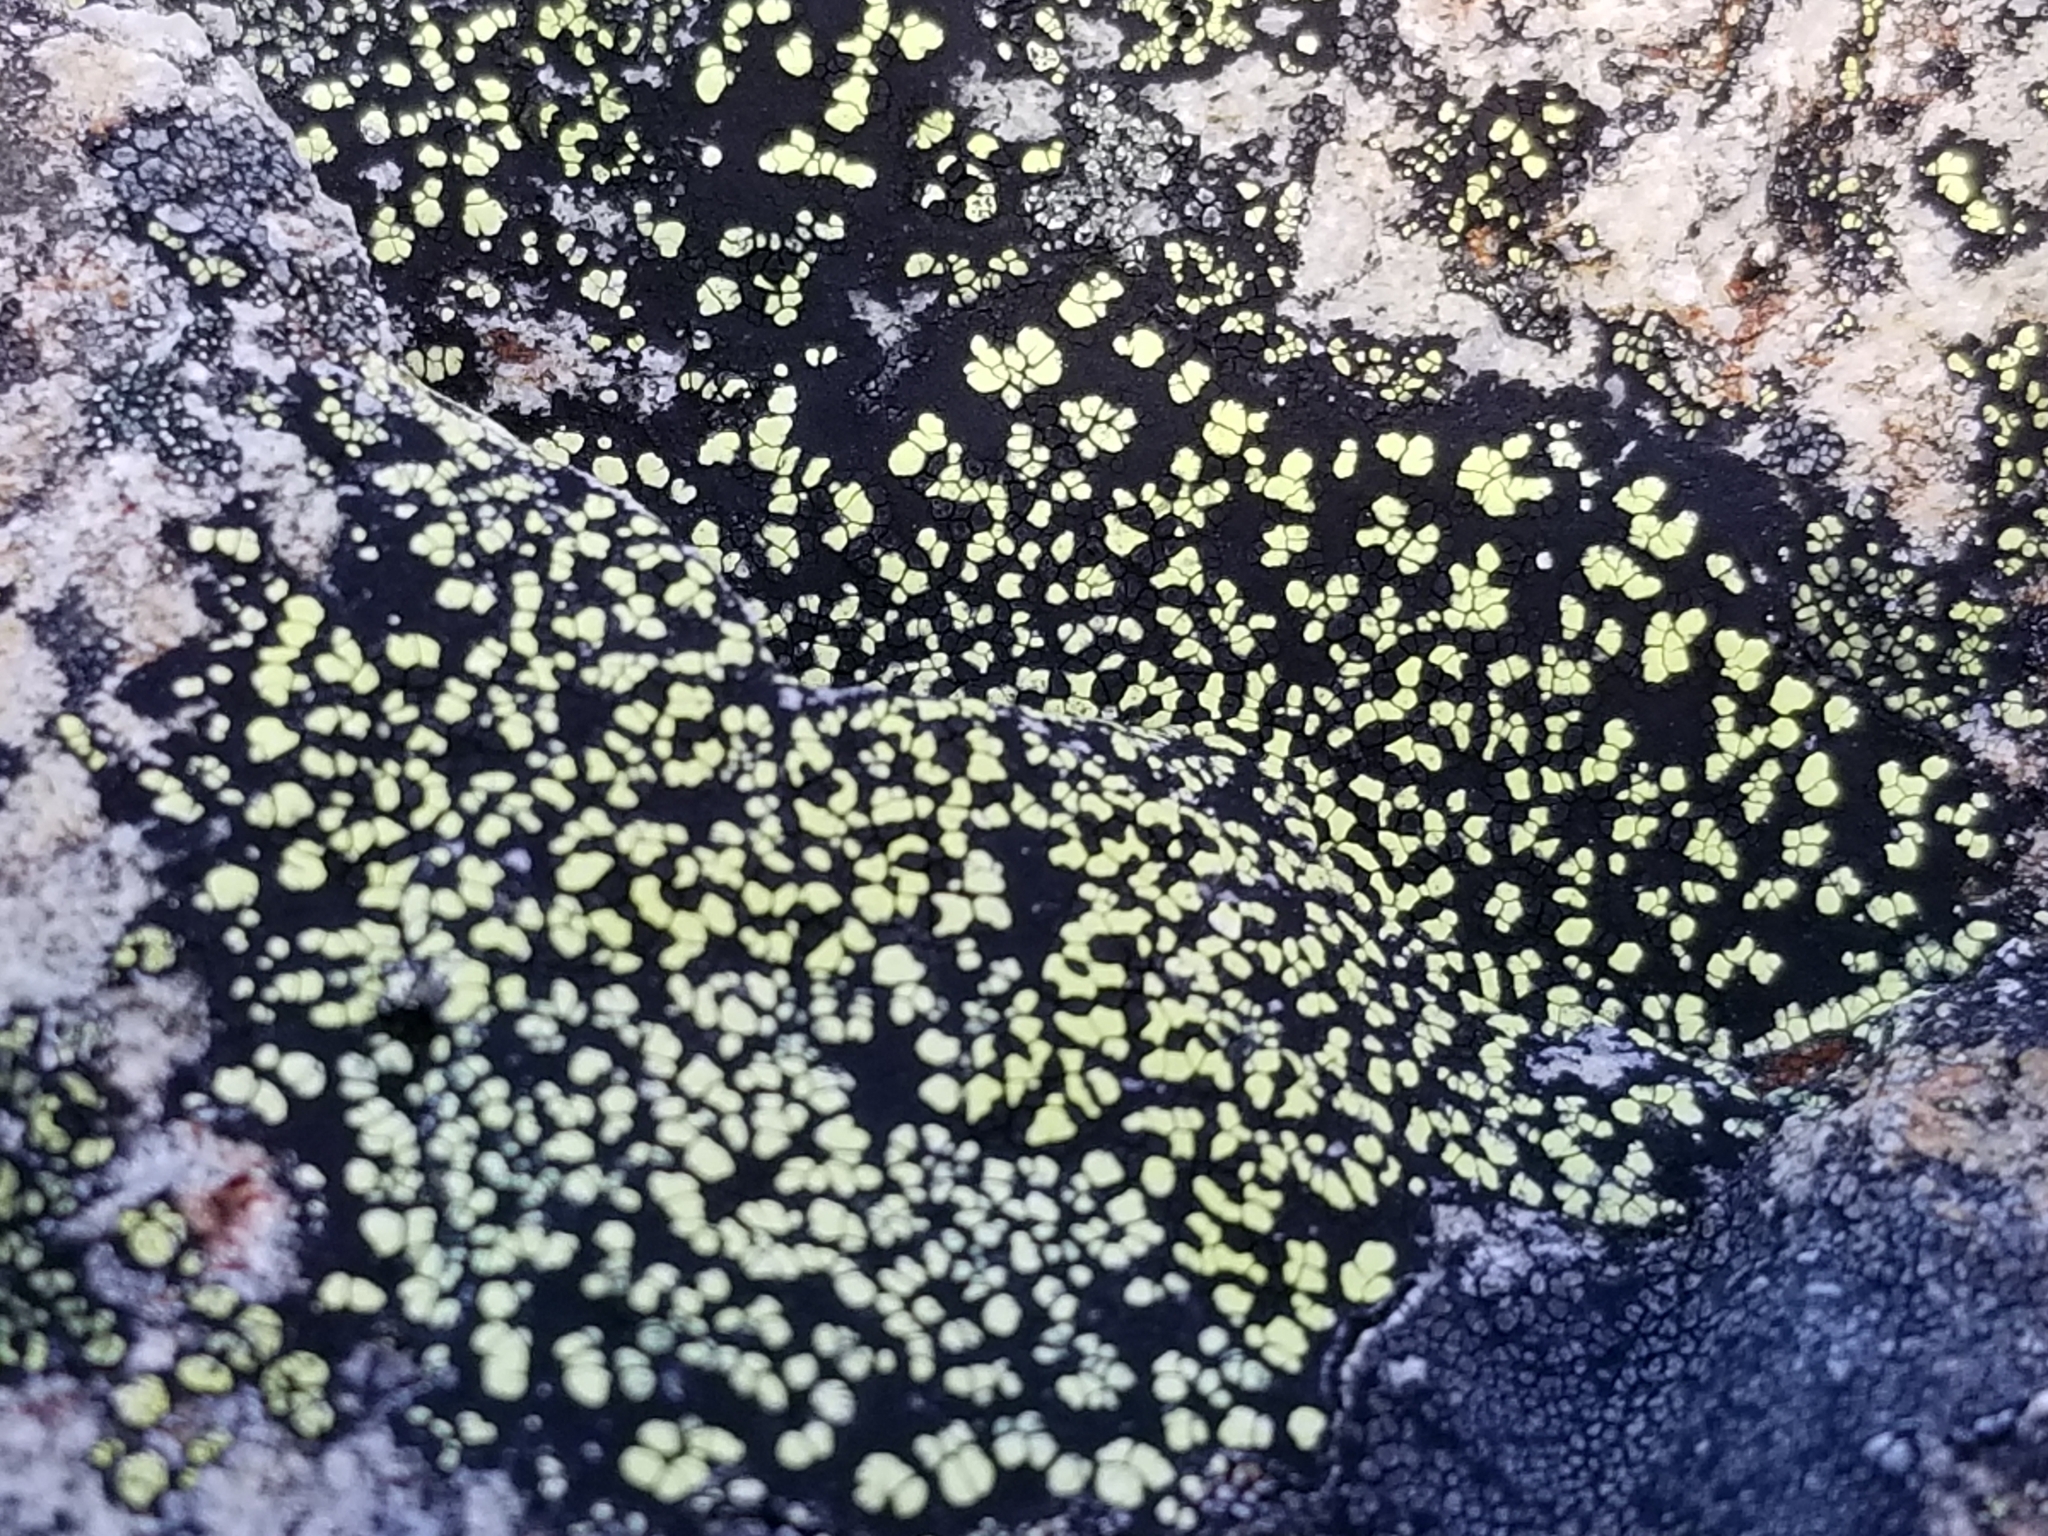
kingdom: Fungi
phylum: Ascomycota
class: Lecanoromycetes
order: Rhizocarpales
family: Rhizocarpaceae
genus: Rhizocarpon
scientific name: Rhizocarpon geographicum
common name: Yellow map lichen
